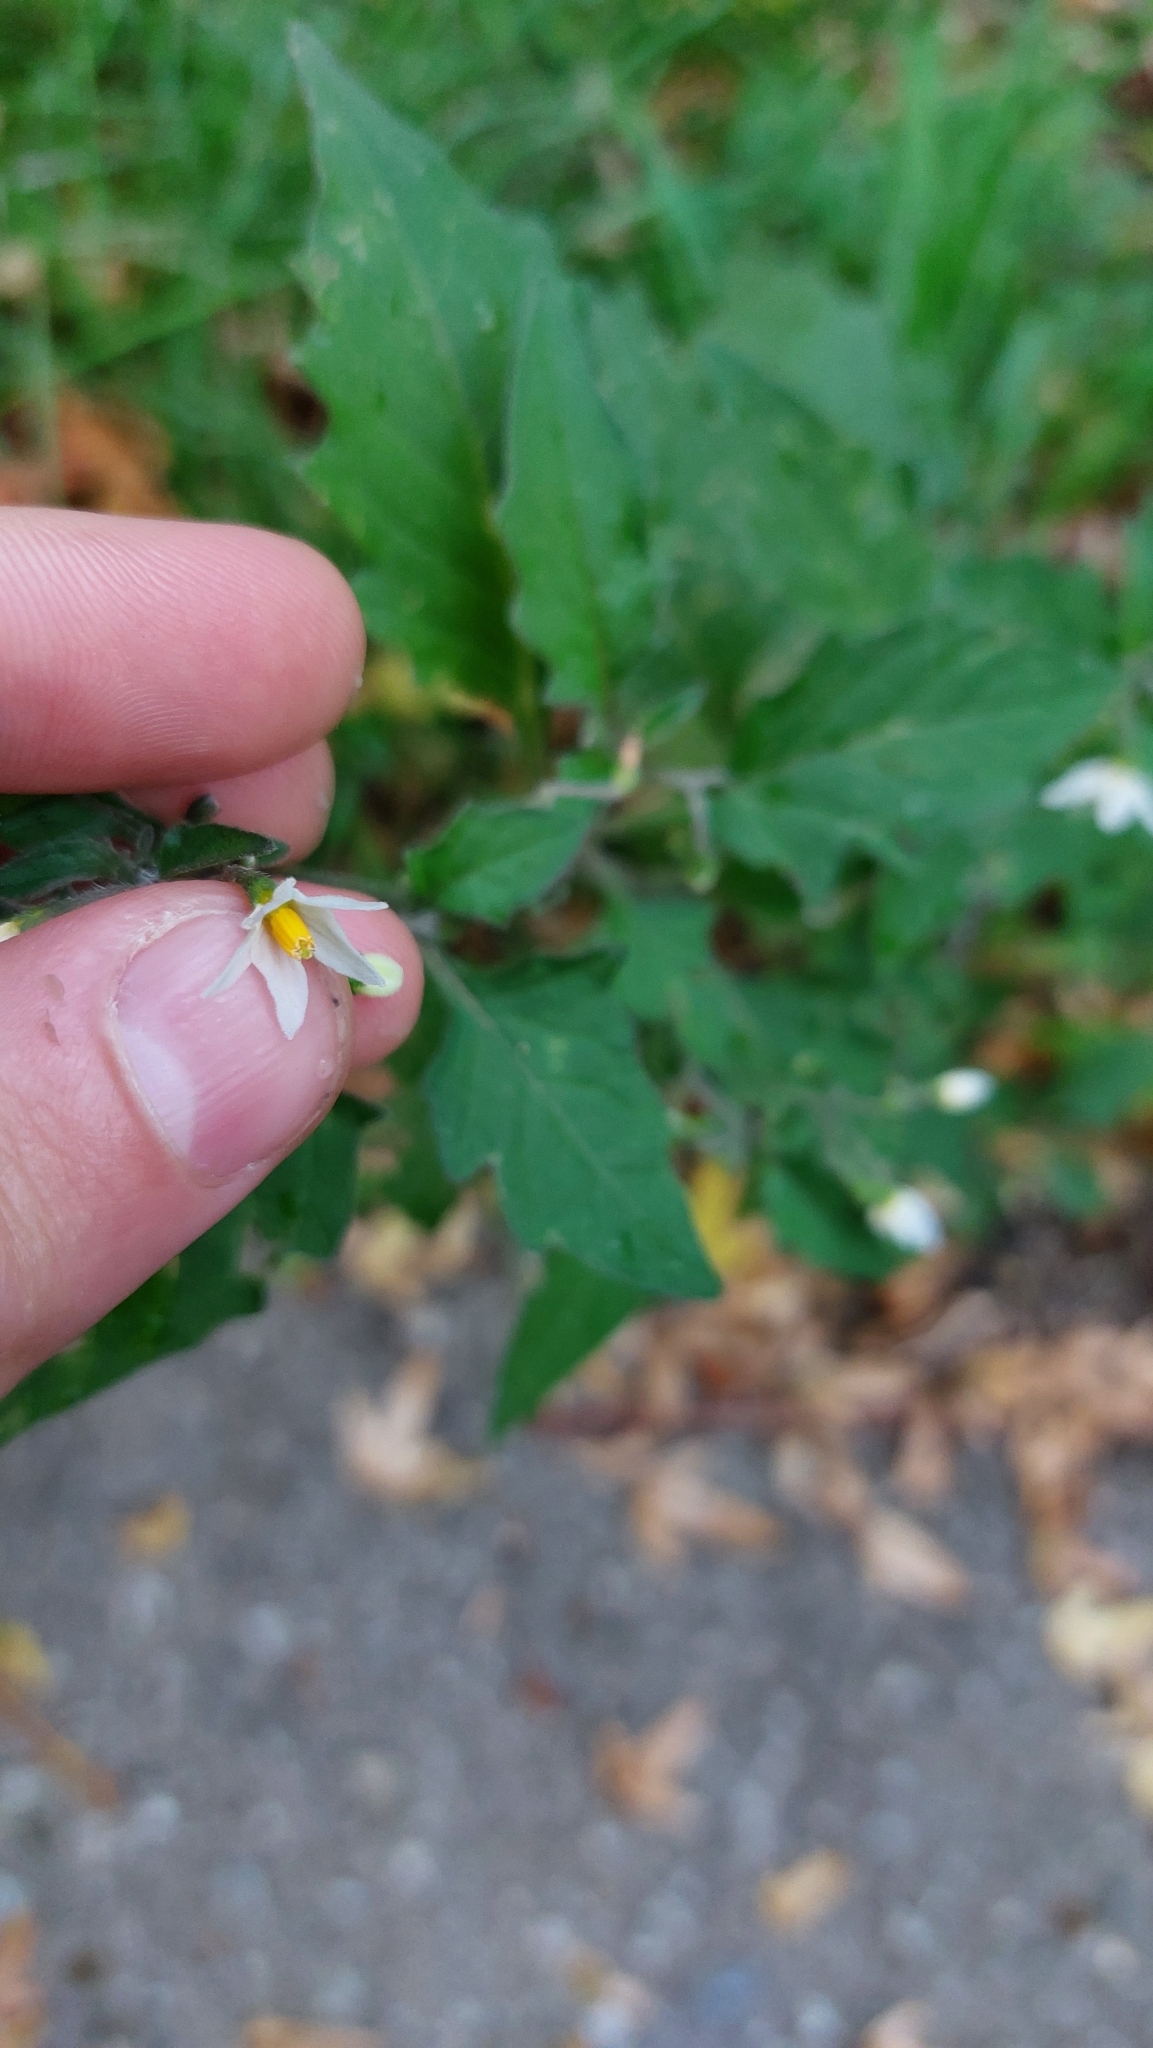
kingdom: Plantae
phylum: Tracheophyta
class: Magnoliopsida
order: Solanales
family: Solanaceae
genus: Solanum
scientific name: Solanum nigrum
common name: Black nightshade
